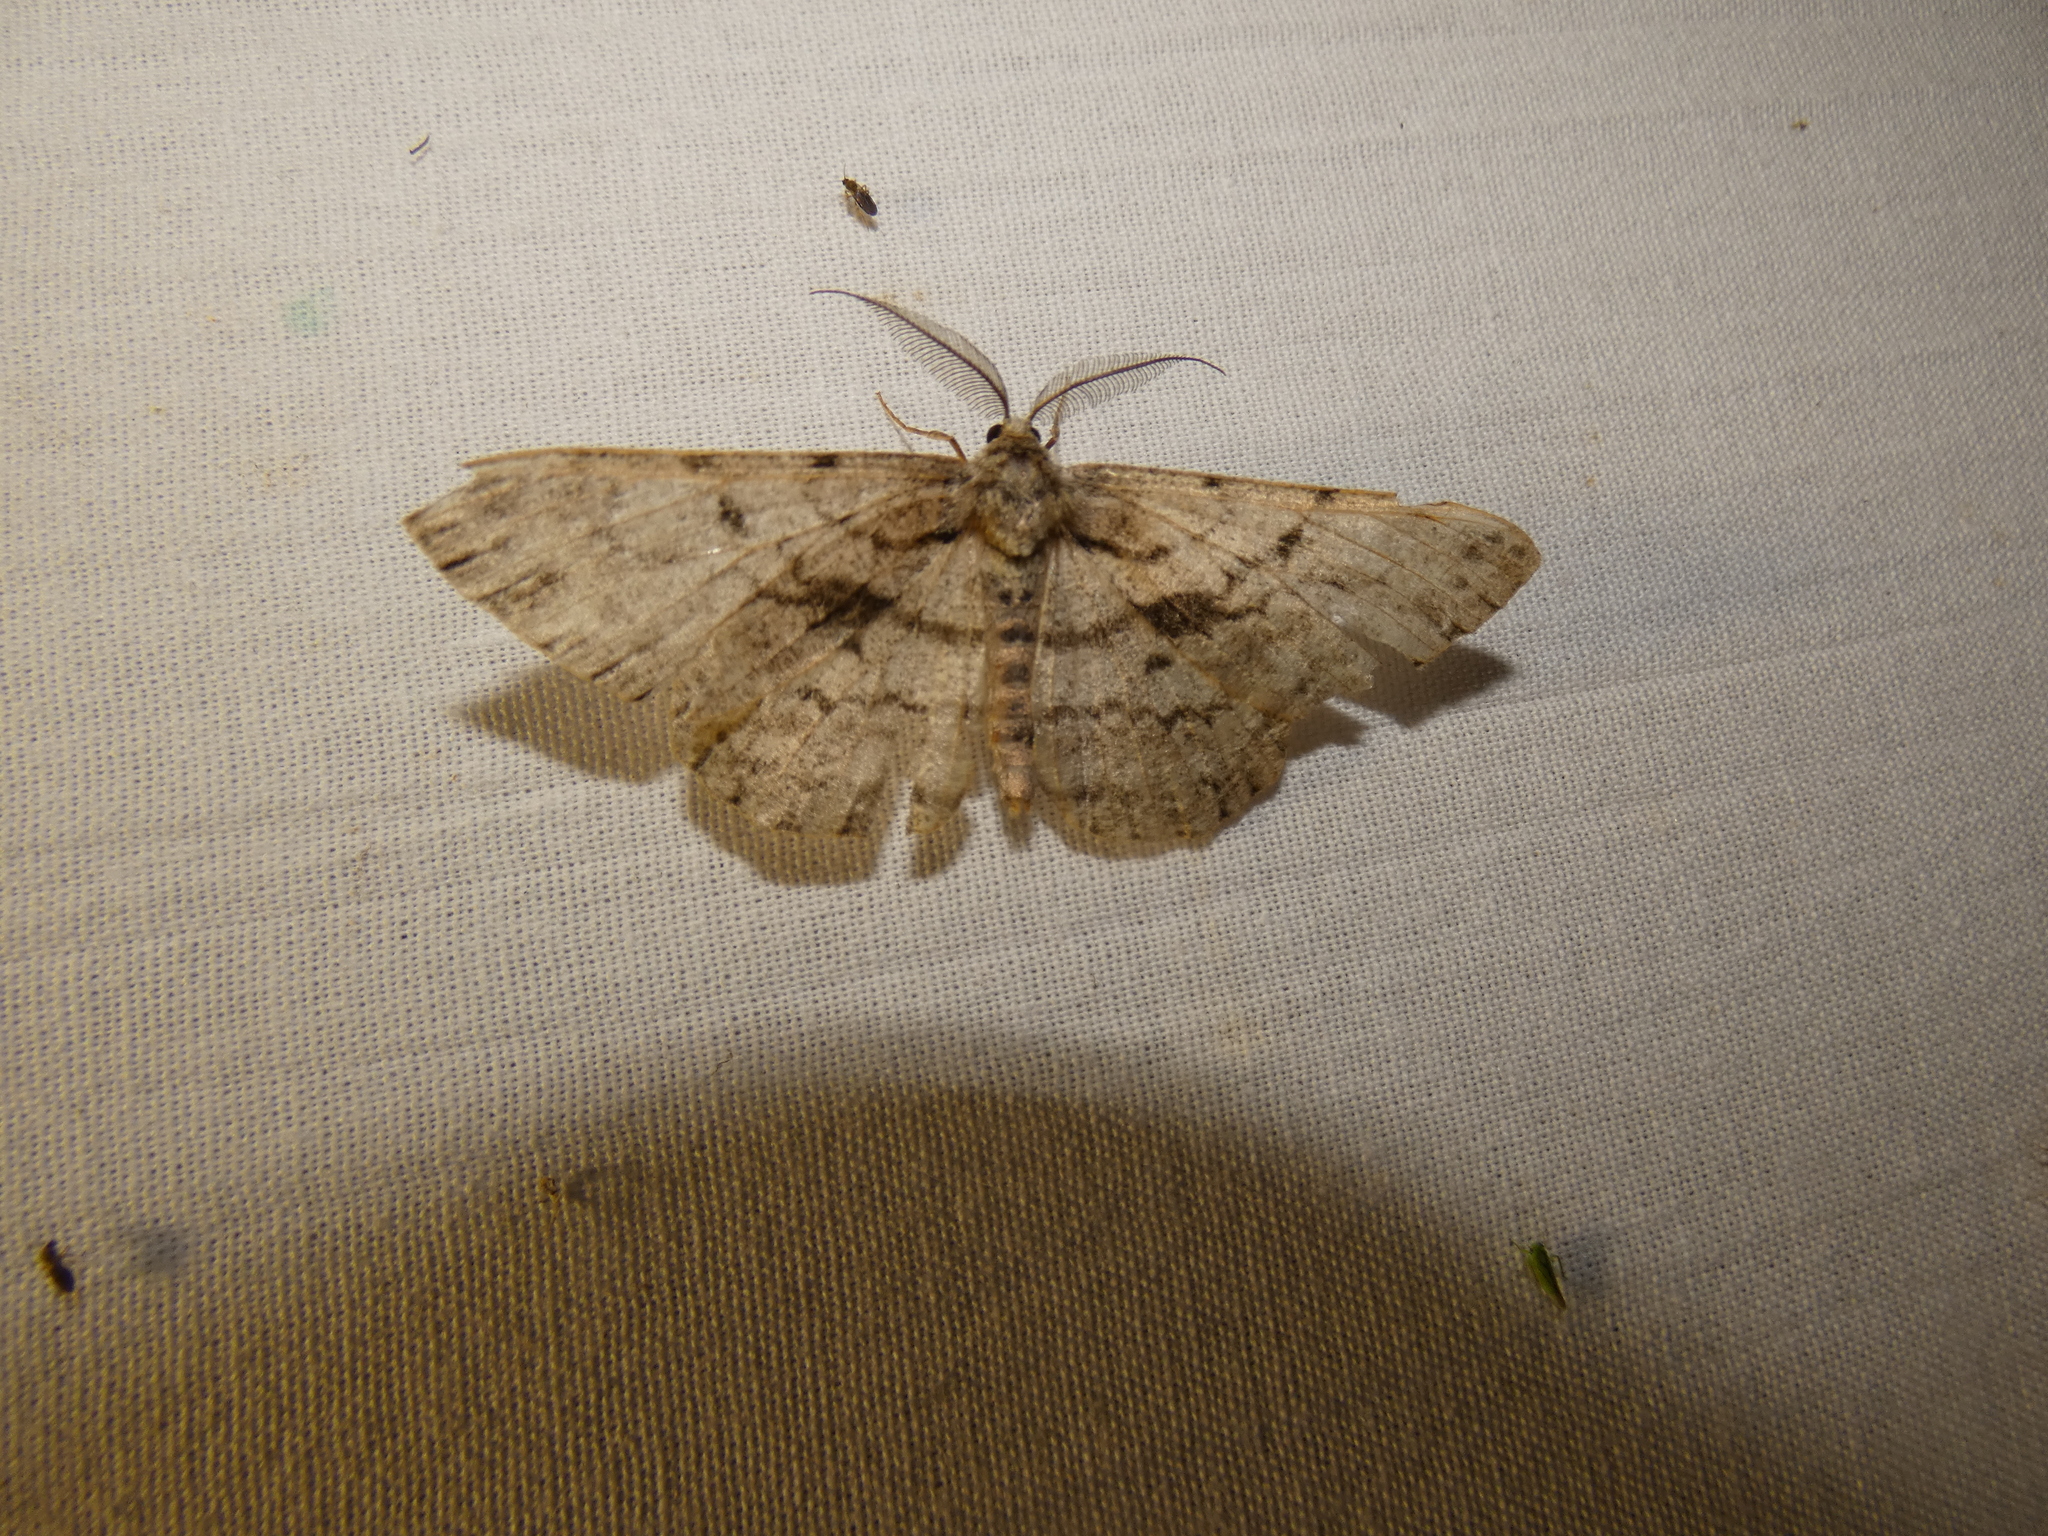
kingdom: Animalia
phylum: Arthropoda
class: Insecta
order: Lepidoptera
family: Geometridae
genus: Hypomecis
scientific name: Hypomecis roboraria
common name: Great oak beauty
